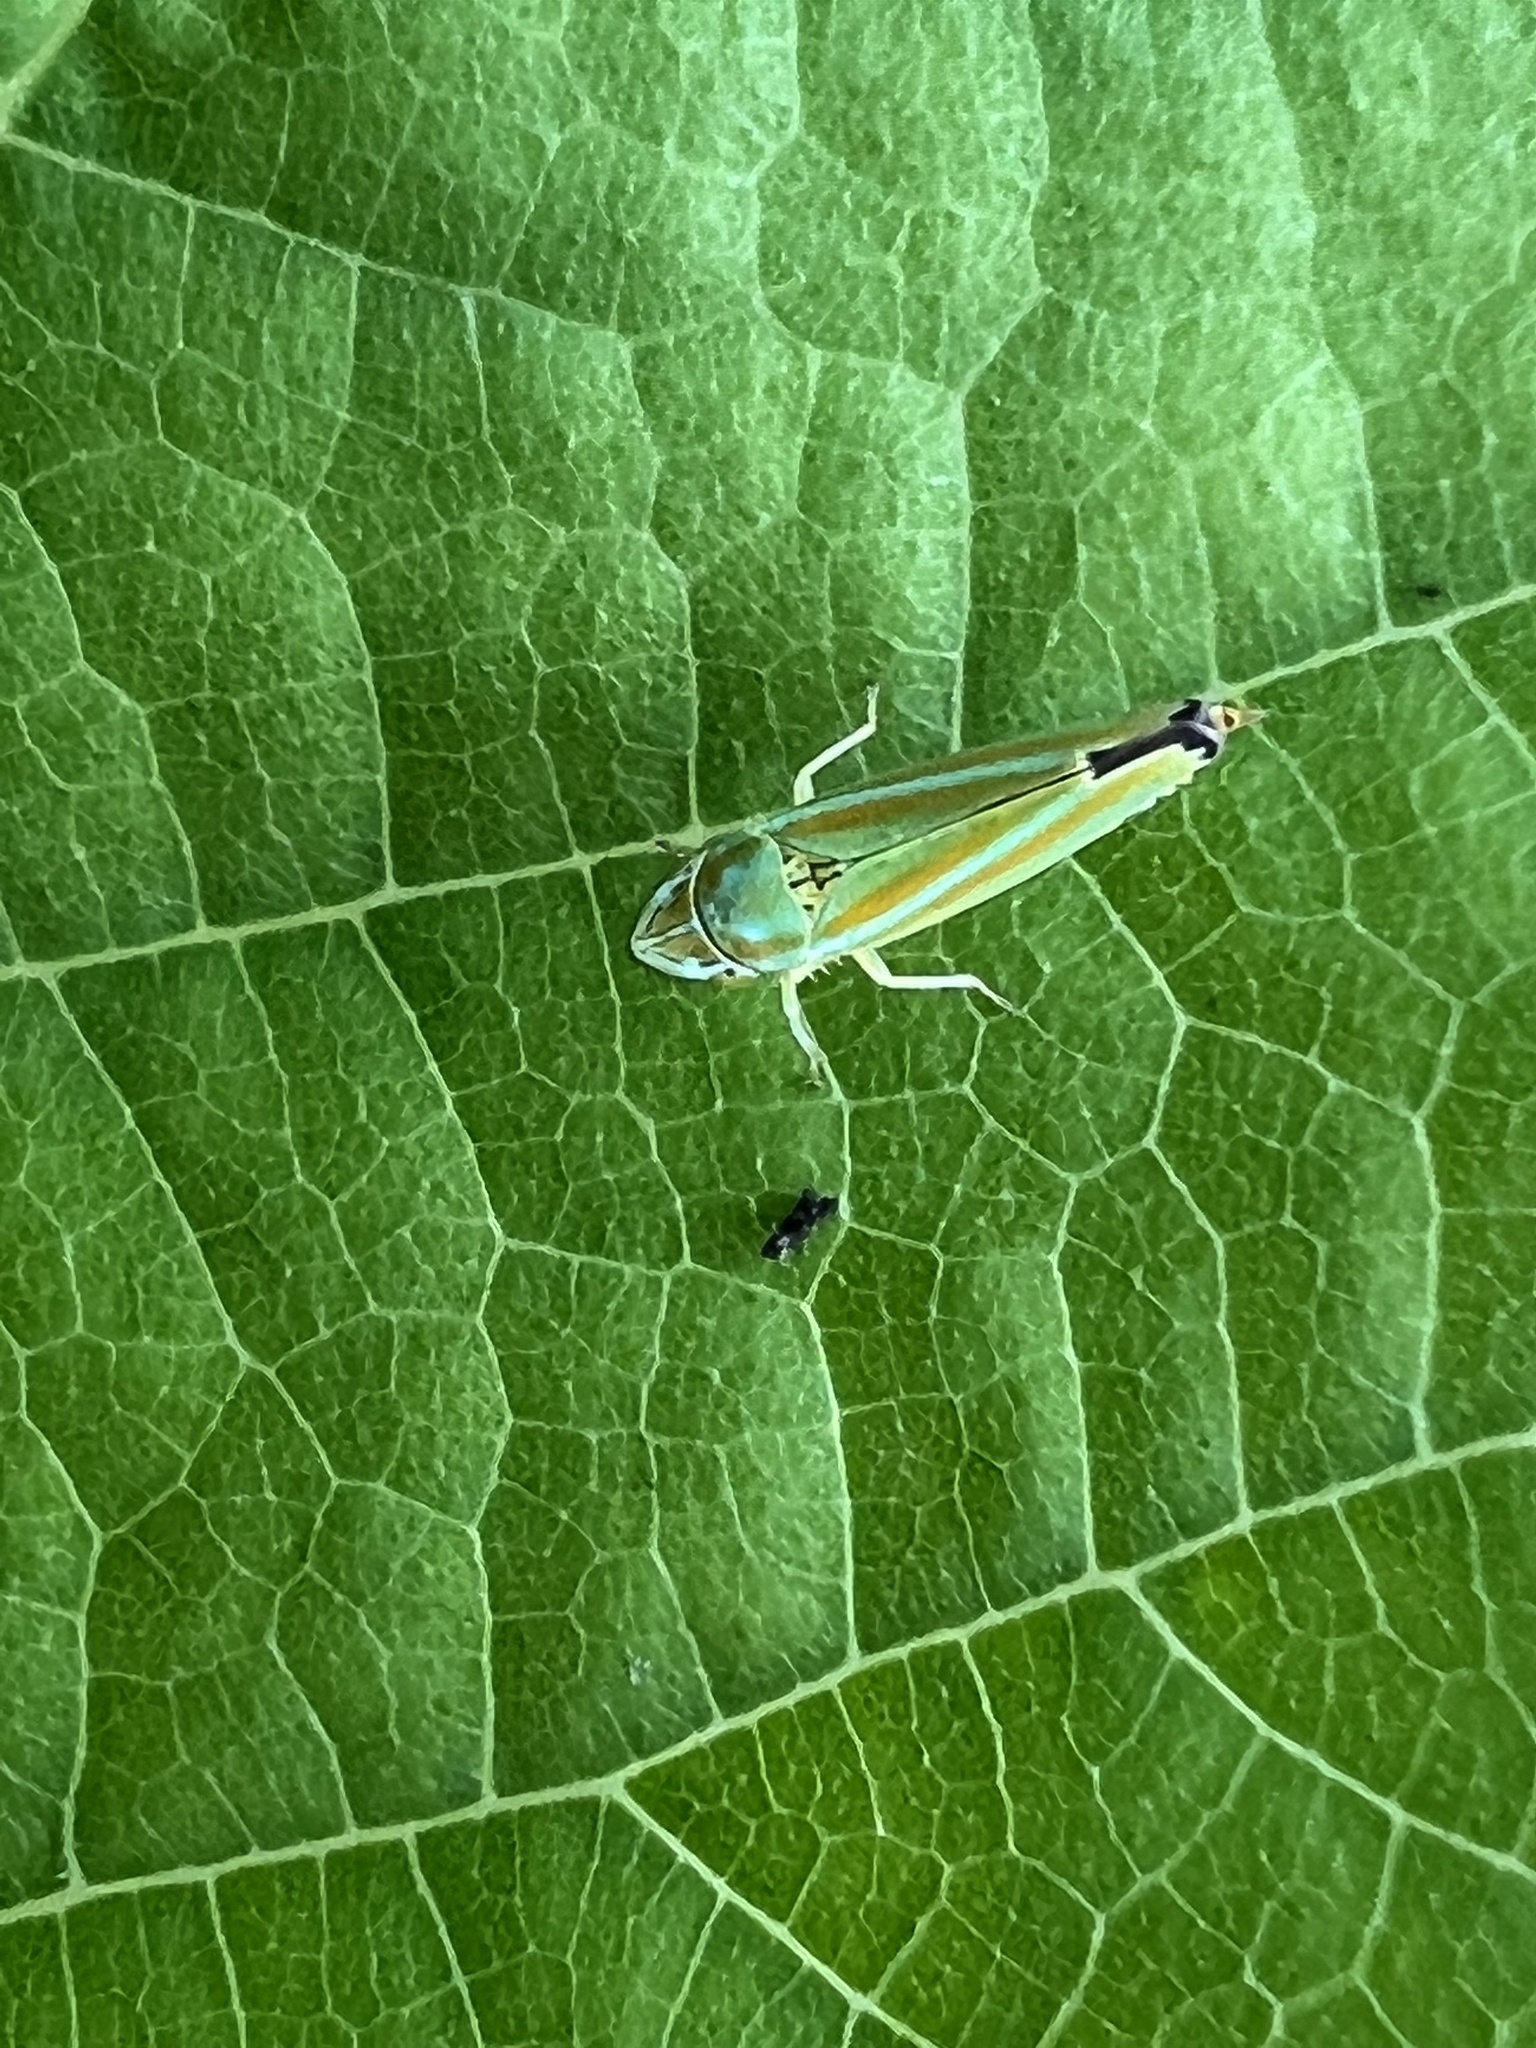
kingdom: Animalia
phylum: Arthropoda
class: Insecta
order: Hemiptera
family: Cicadellidae
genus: Graphocephala
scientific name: Graphocephala versuta
